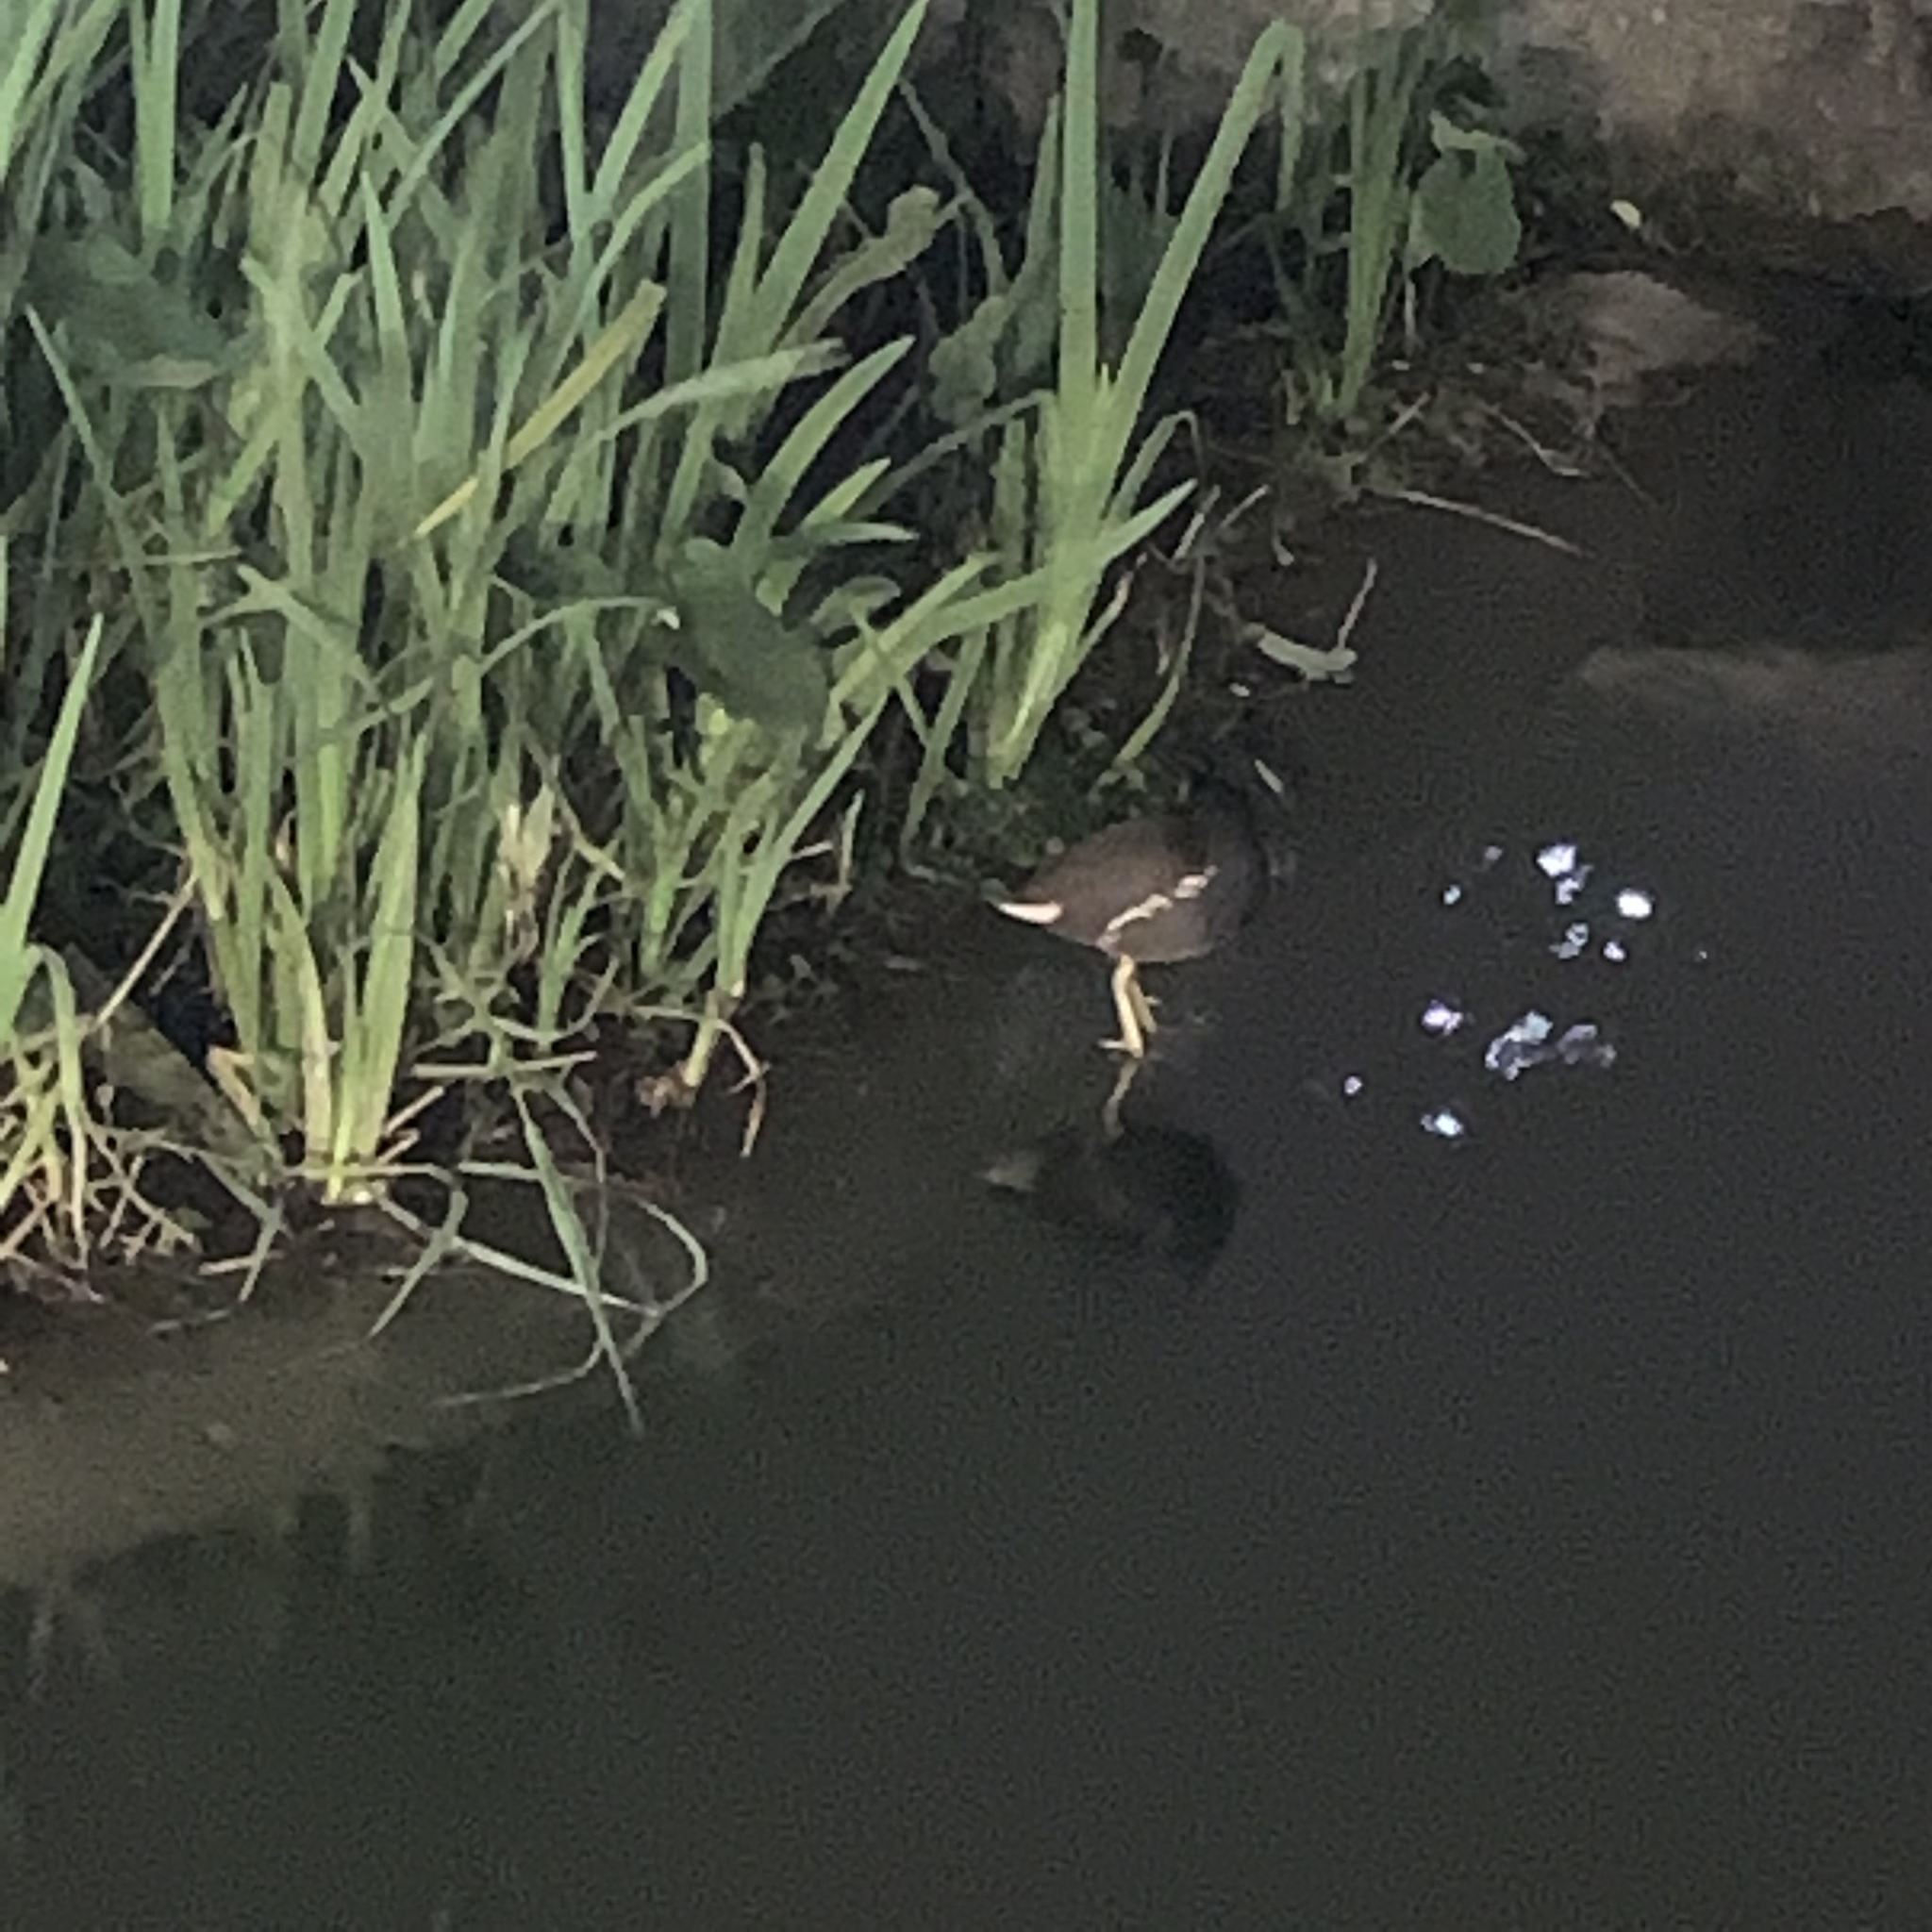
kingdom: Animalia
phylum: Chordata
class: Aves
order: Gruiformes
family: Rallidae
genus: Gallinula
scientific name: Gallinula chloropus
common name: Common moorhen
